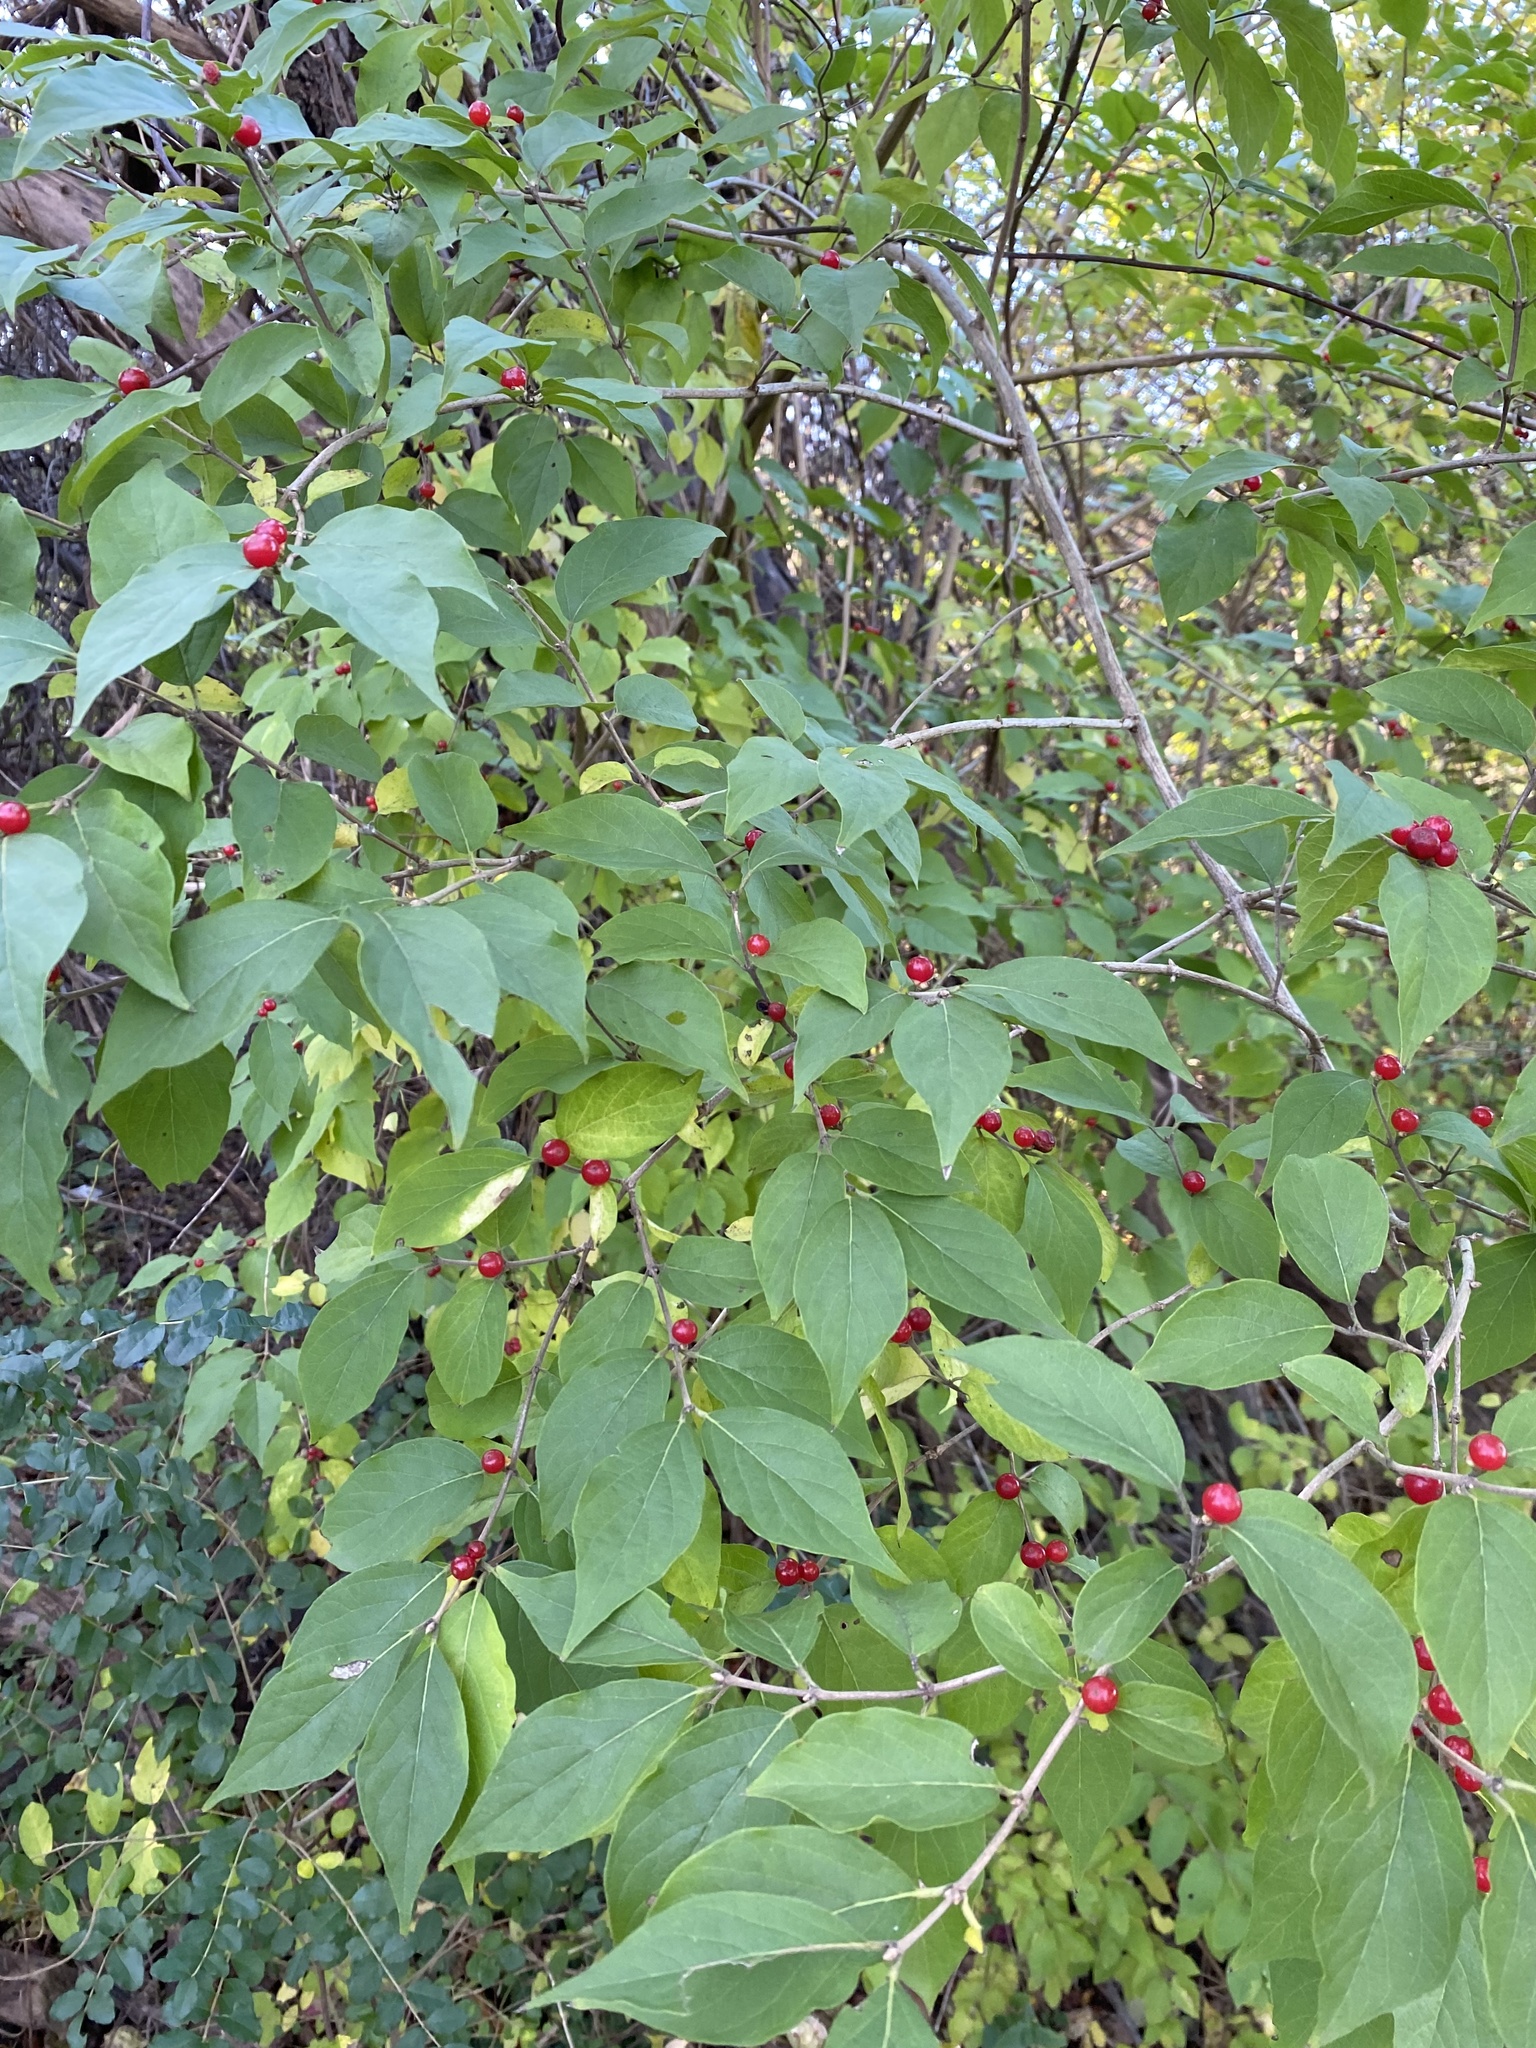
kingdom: Plantae
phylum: Tracheophyta
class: Magnoliopsida
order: Dipsacales
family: Caprifoliaceae
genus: Lonicera
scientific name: Lonicera maackii
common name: Amur honeysuckle
